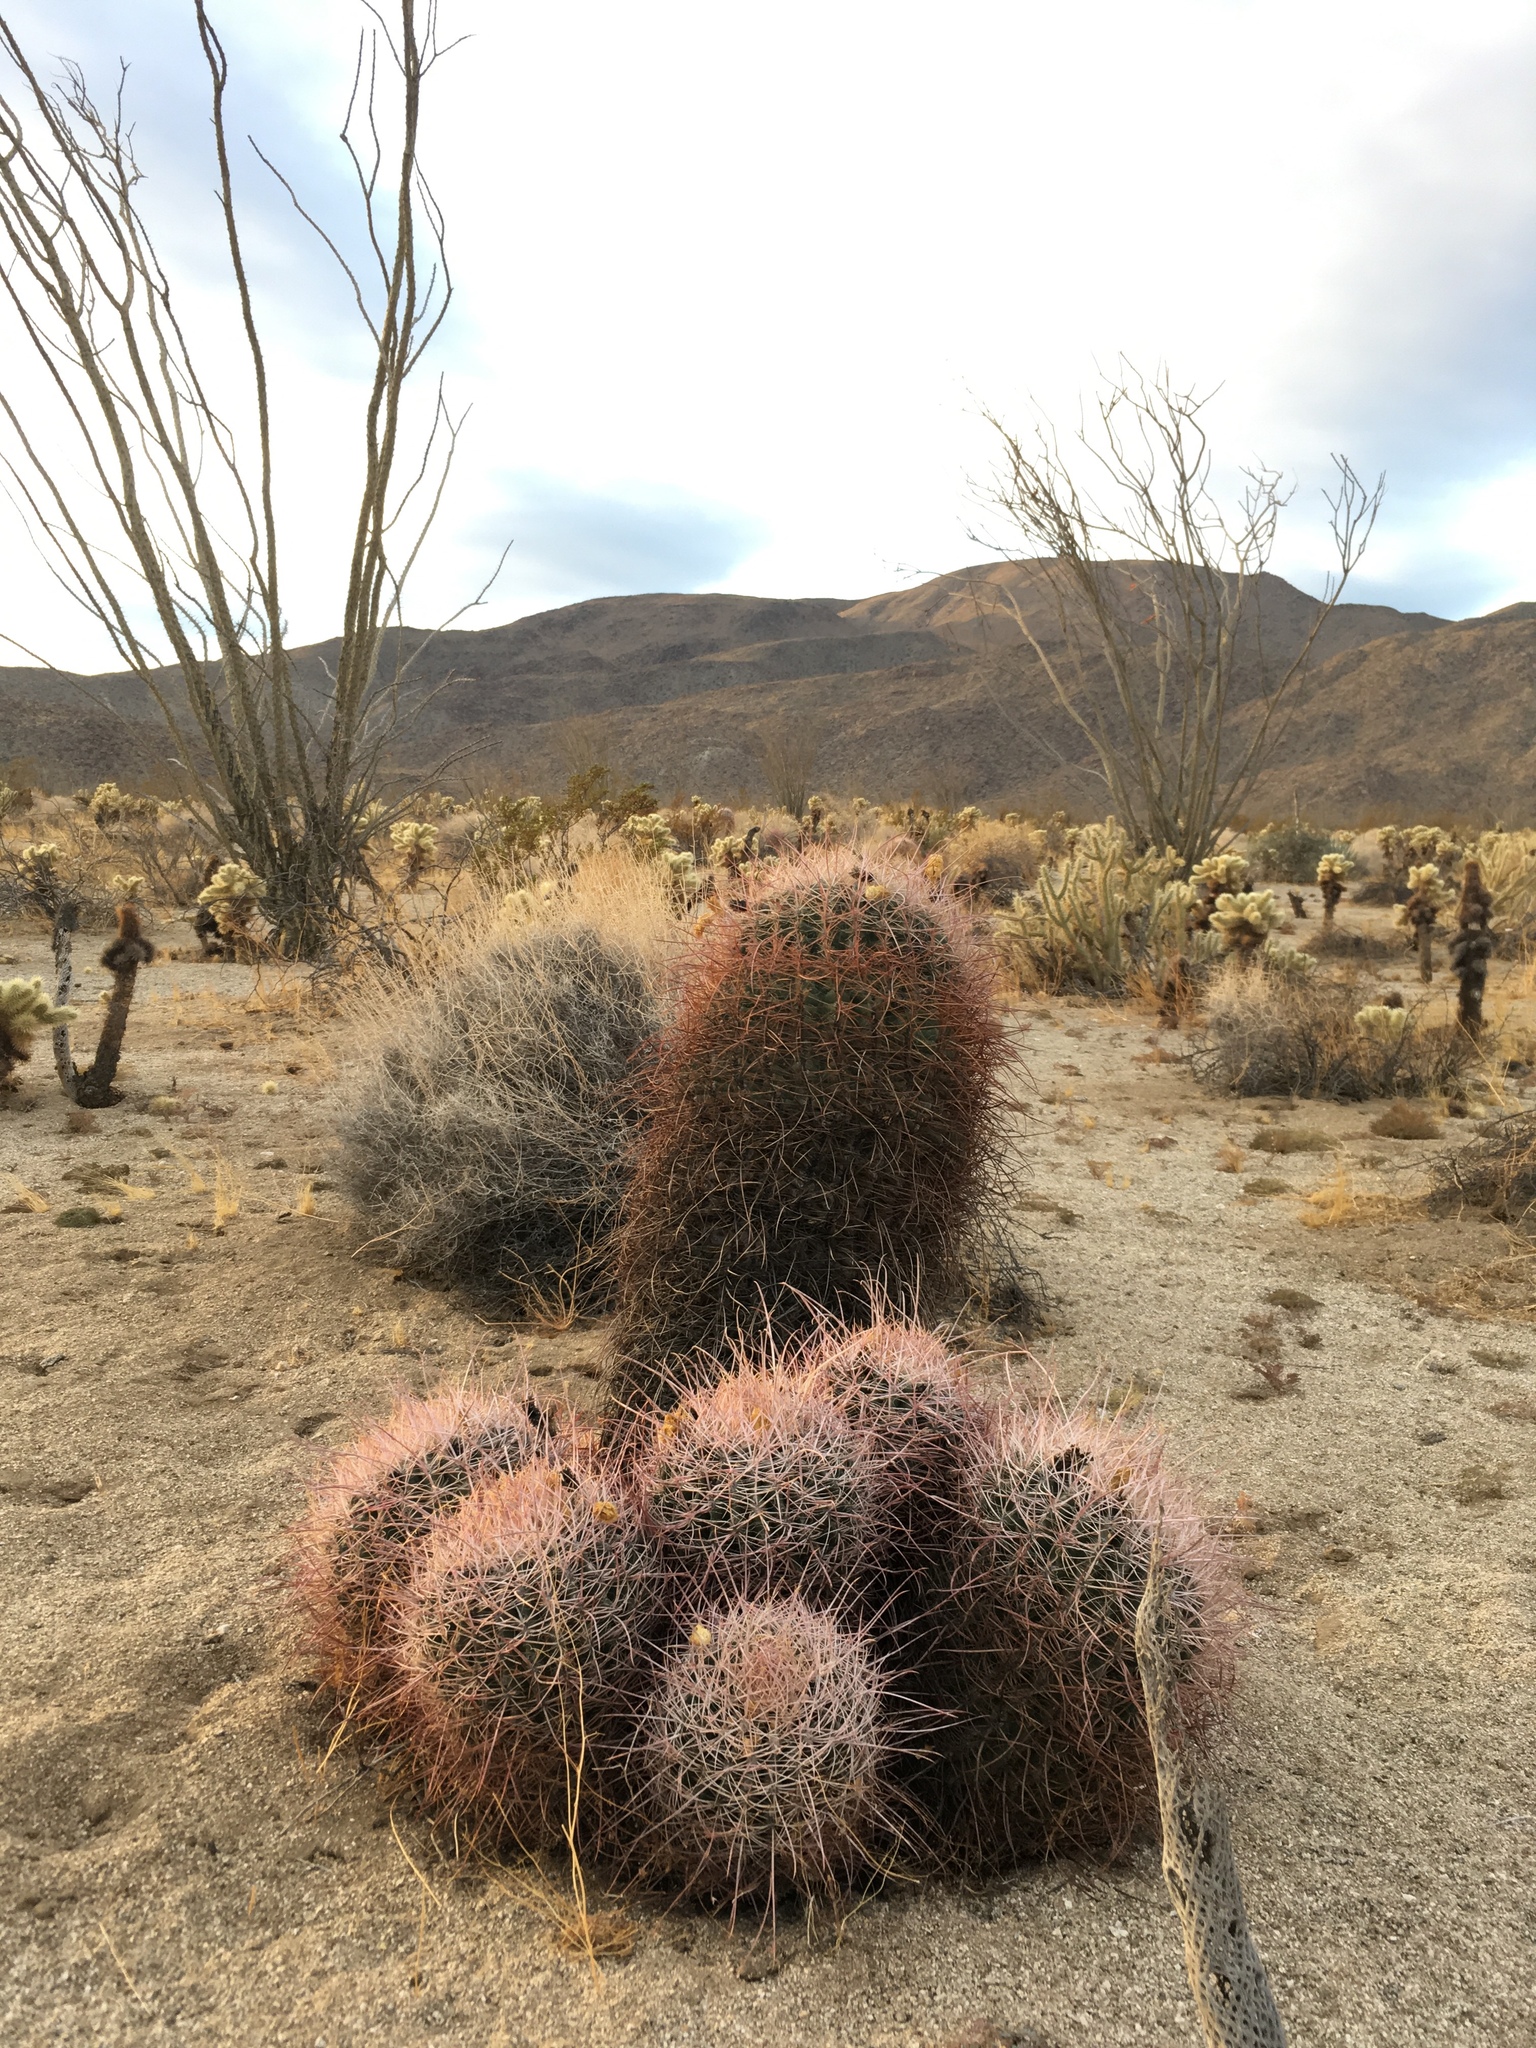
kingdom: Plantae
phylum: Tracheophyta
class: Magnoliopsida
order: Caryophyllales
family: Cactaceae
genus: Ferocactus
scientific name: Ferocactus cylindraceus
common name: California barrel cactus
